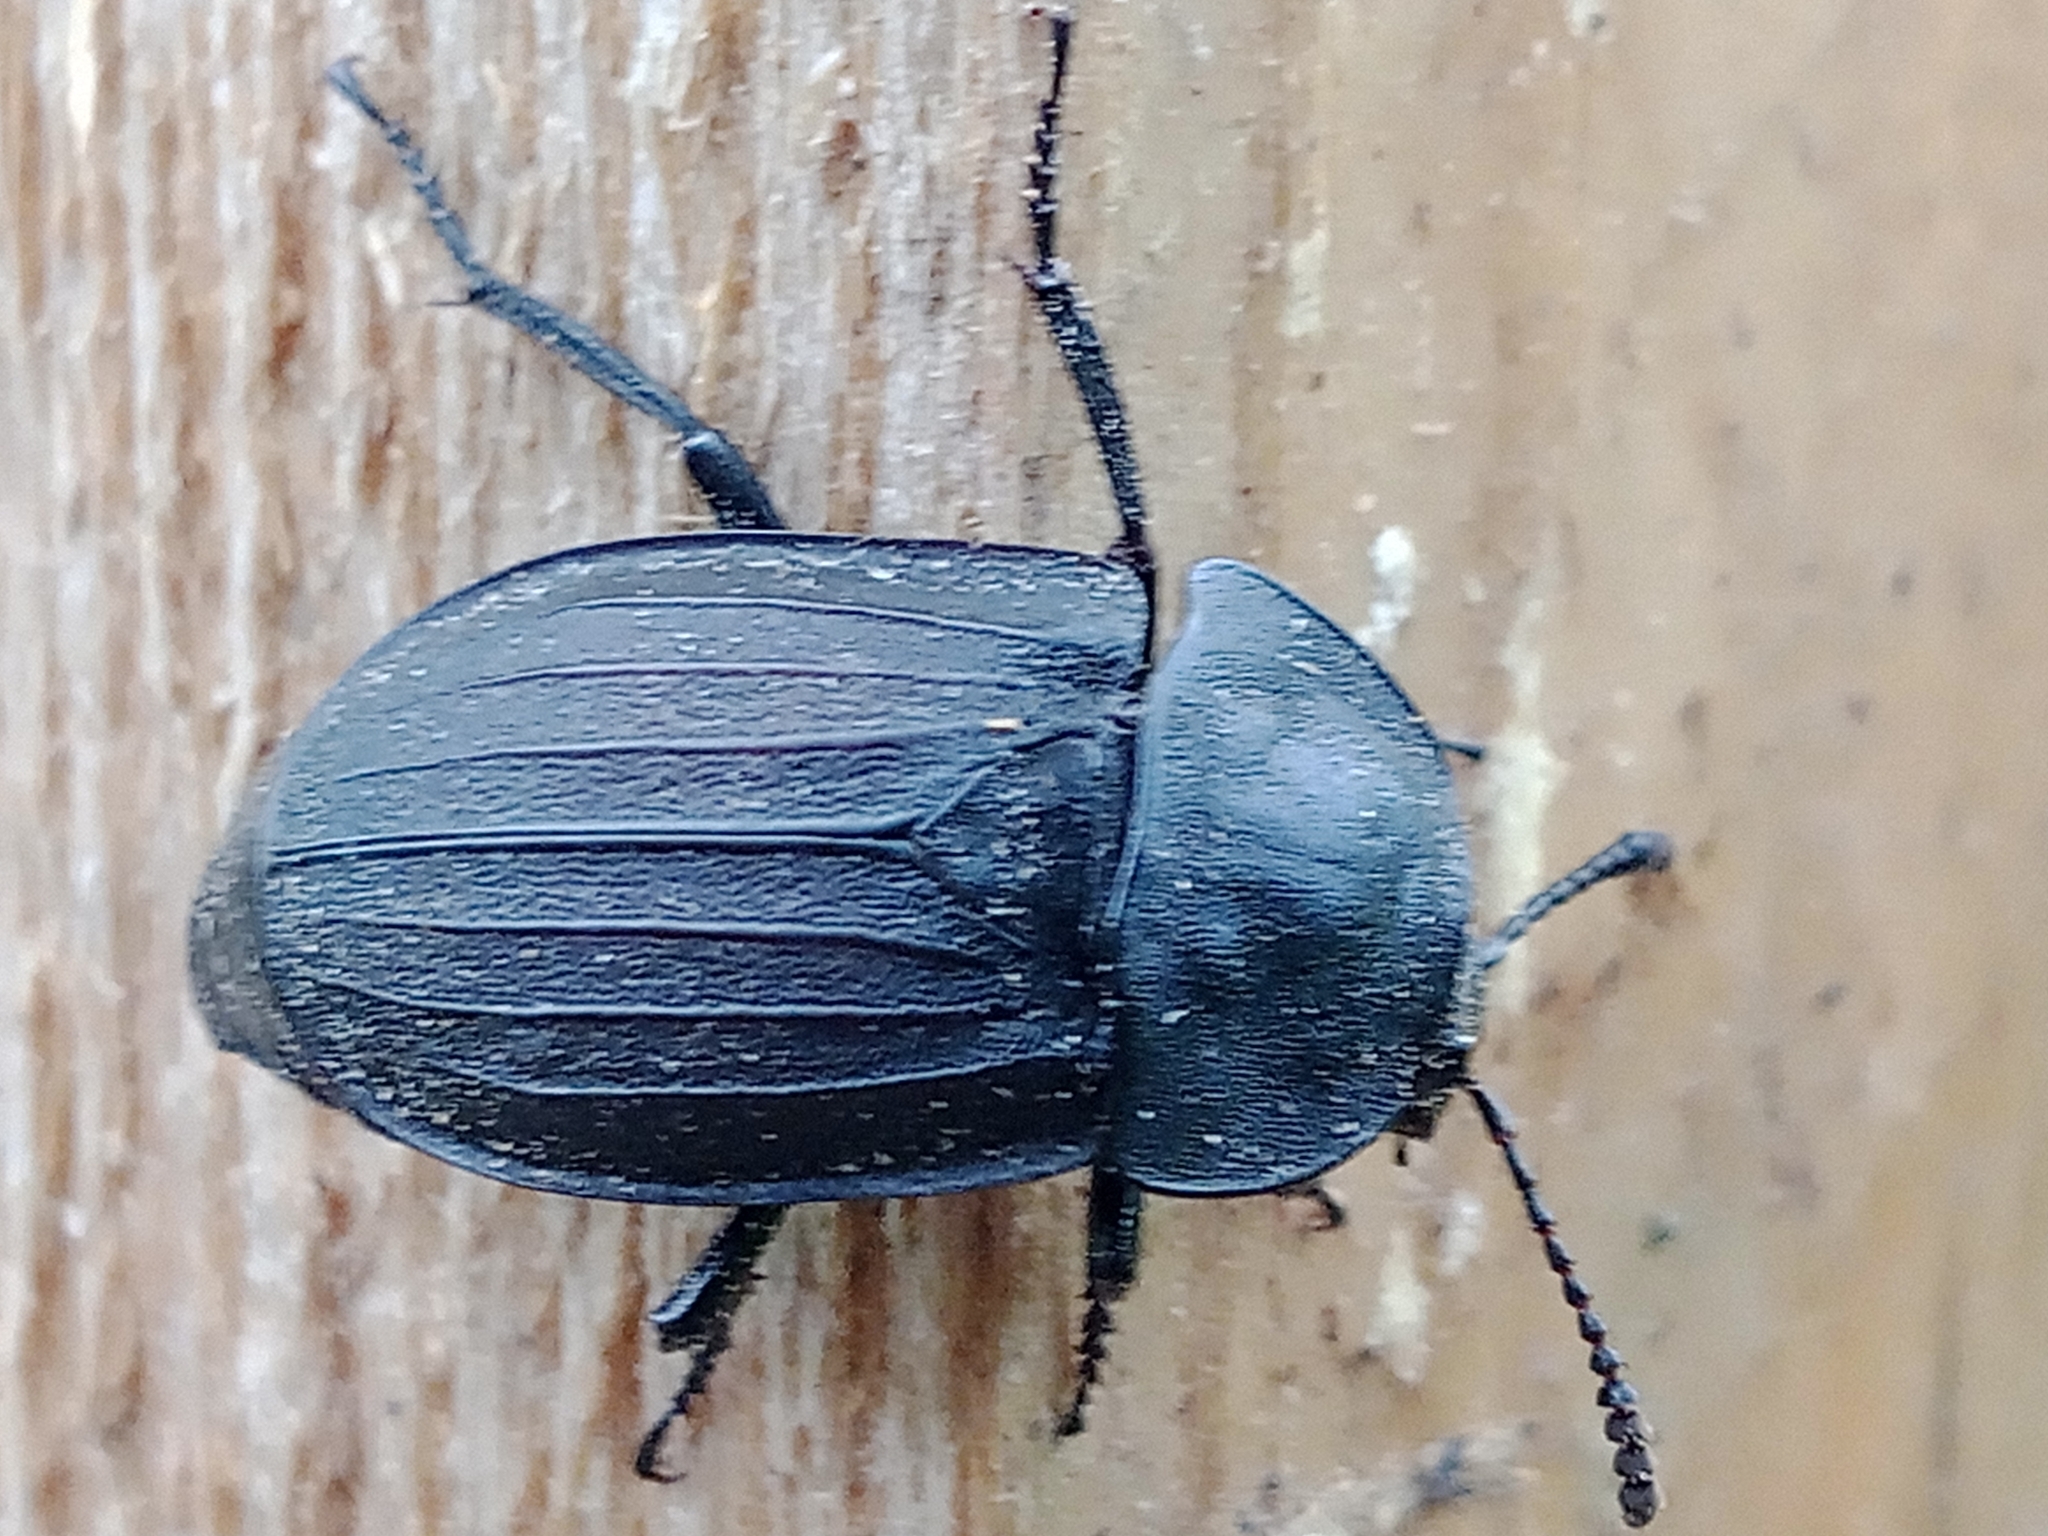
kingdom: Animalia
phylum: Arthropoda
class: Insecta
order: Coleoptera
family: Staphylinidae
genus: Silpha
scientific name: Silpha tristis
